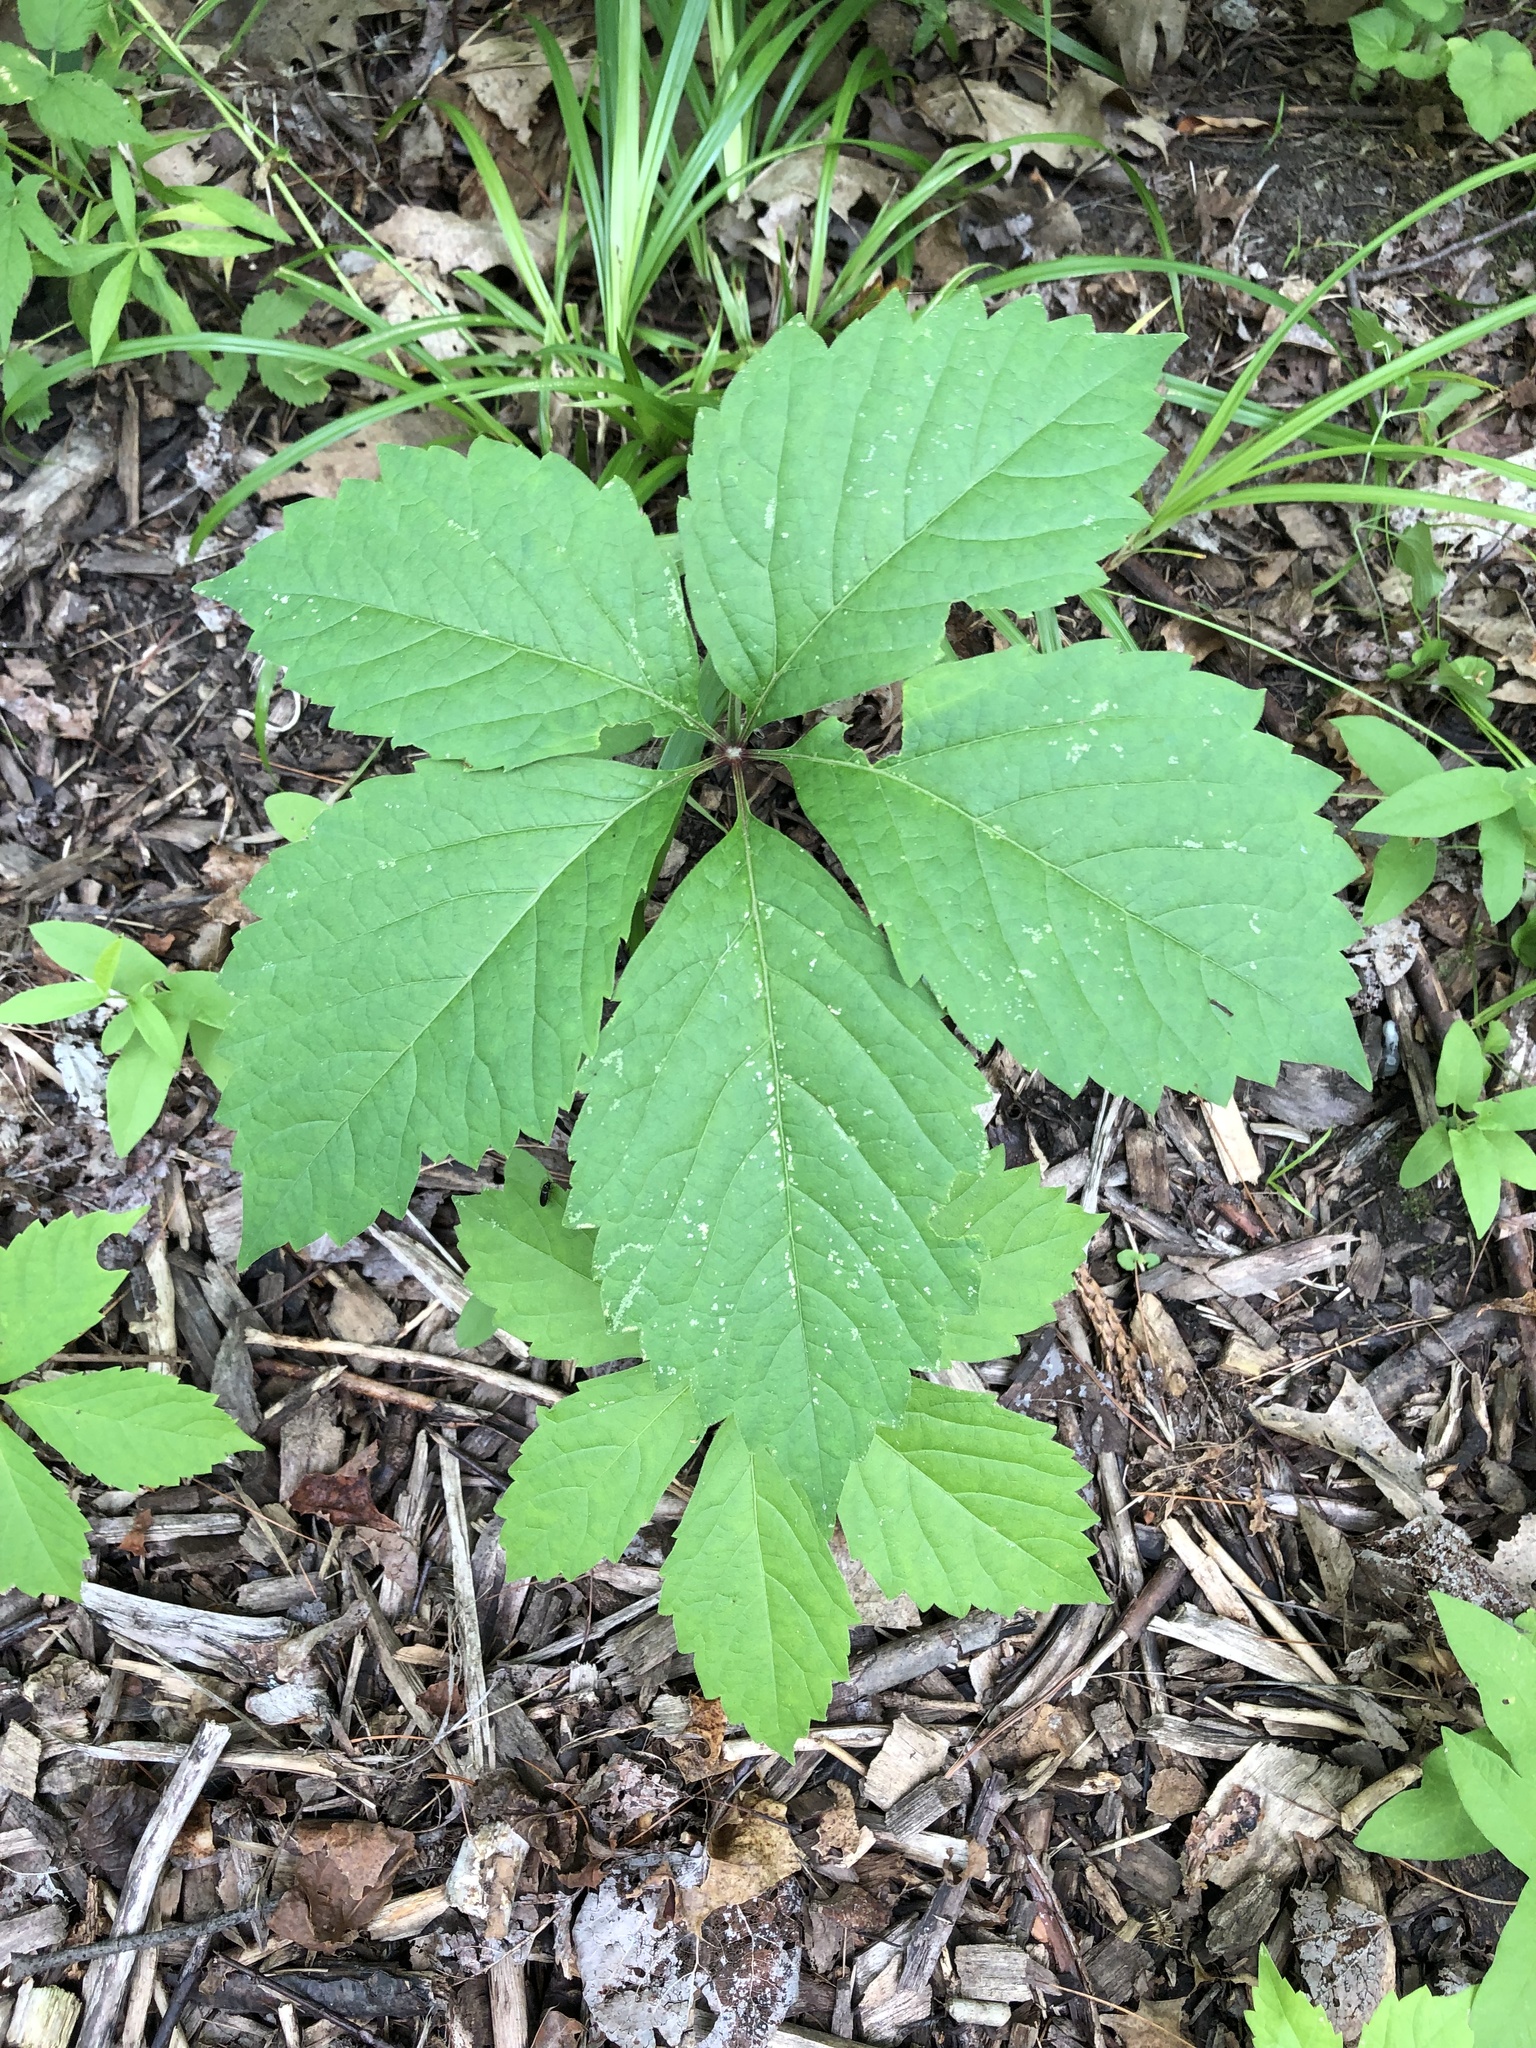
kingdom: Plantae
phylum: Tracheophyta
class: Magnoliopsida
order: Vitales
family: Vitaceae
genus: Parthenocissus
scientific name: Parthenocissus inserta
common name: False virginia-creeper
